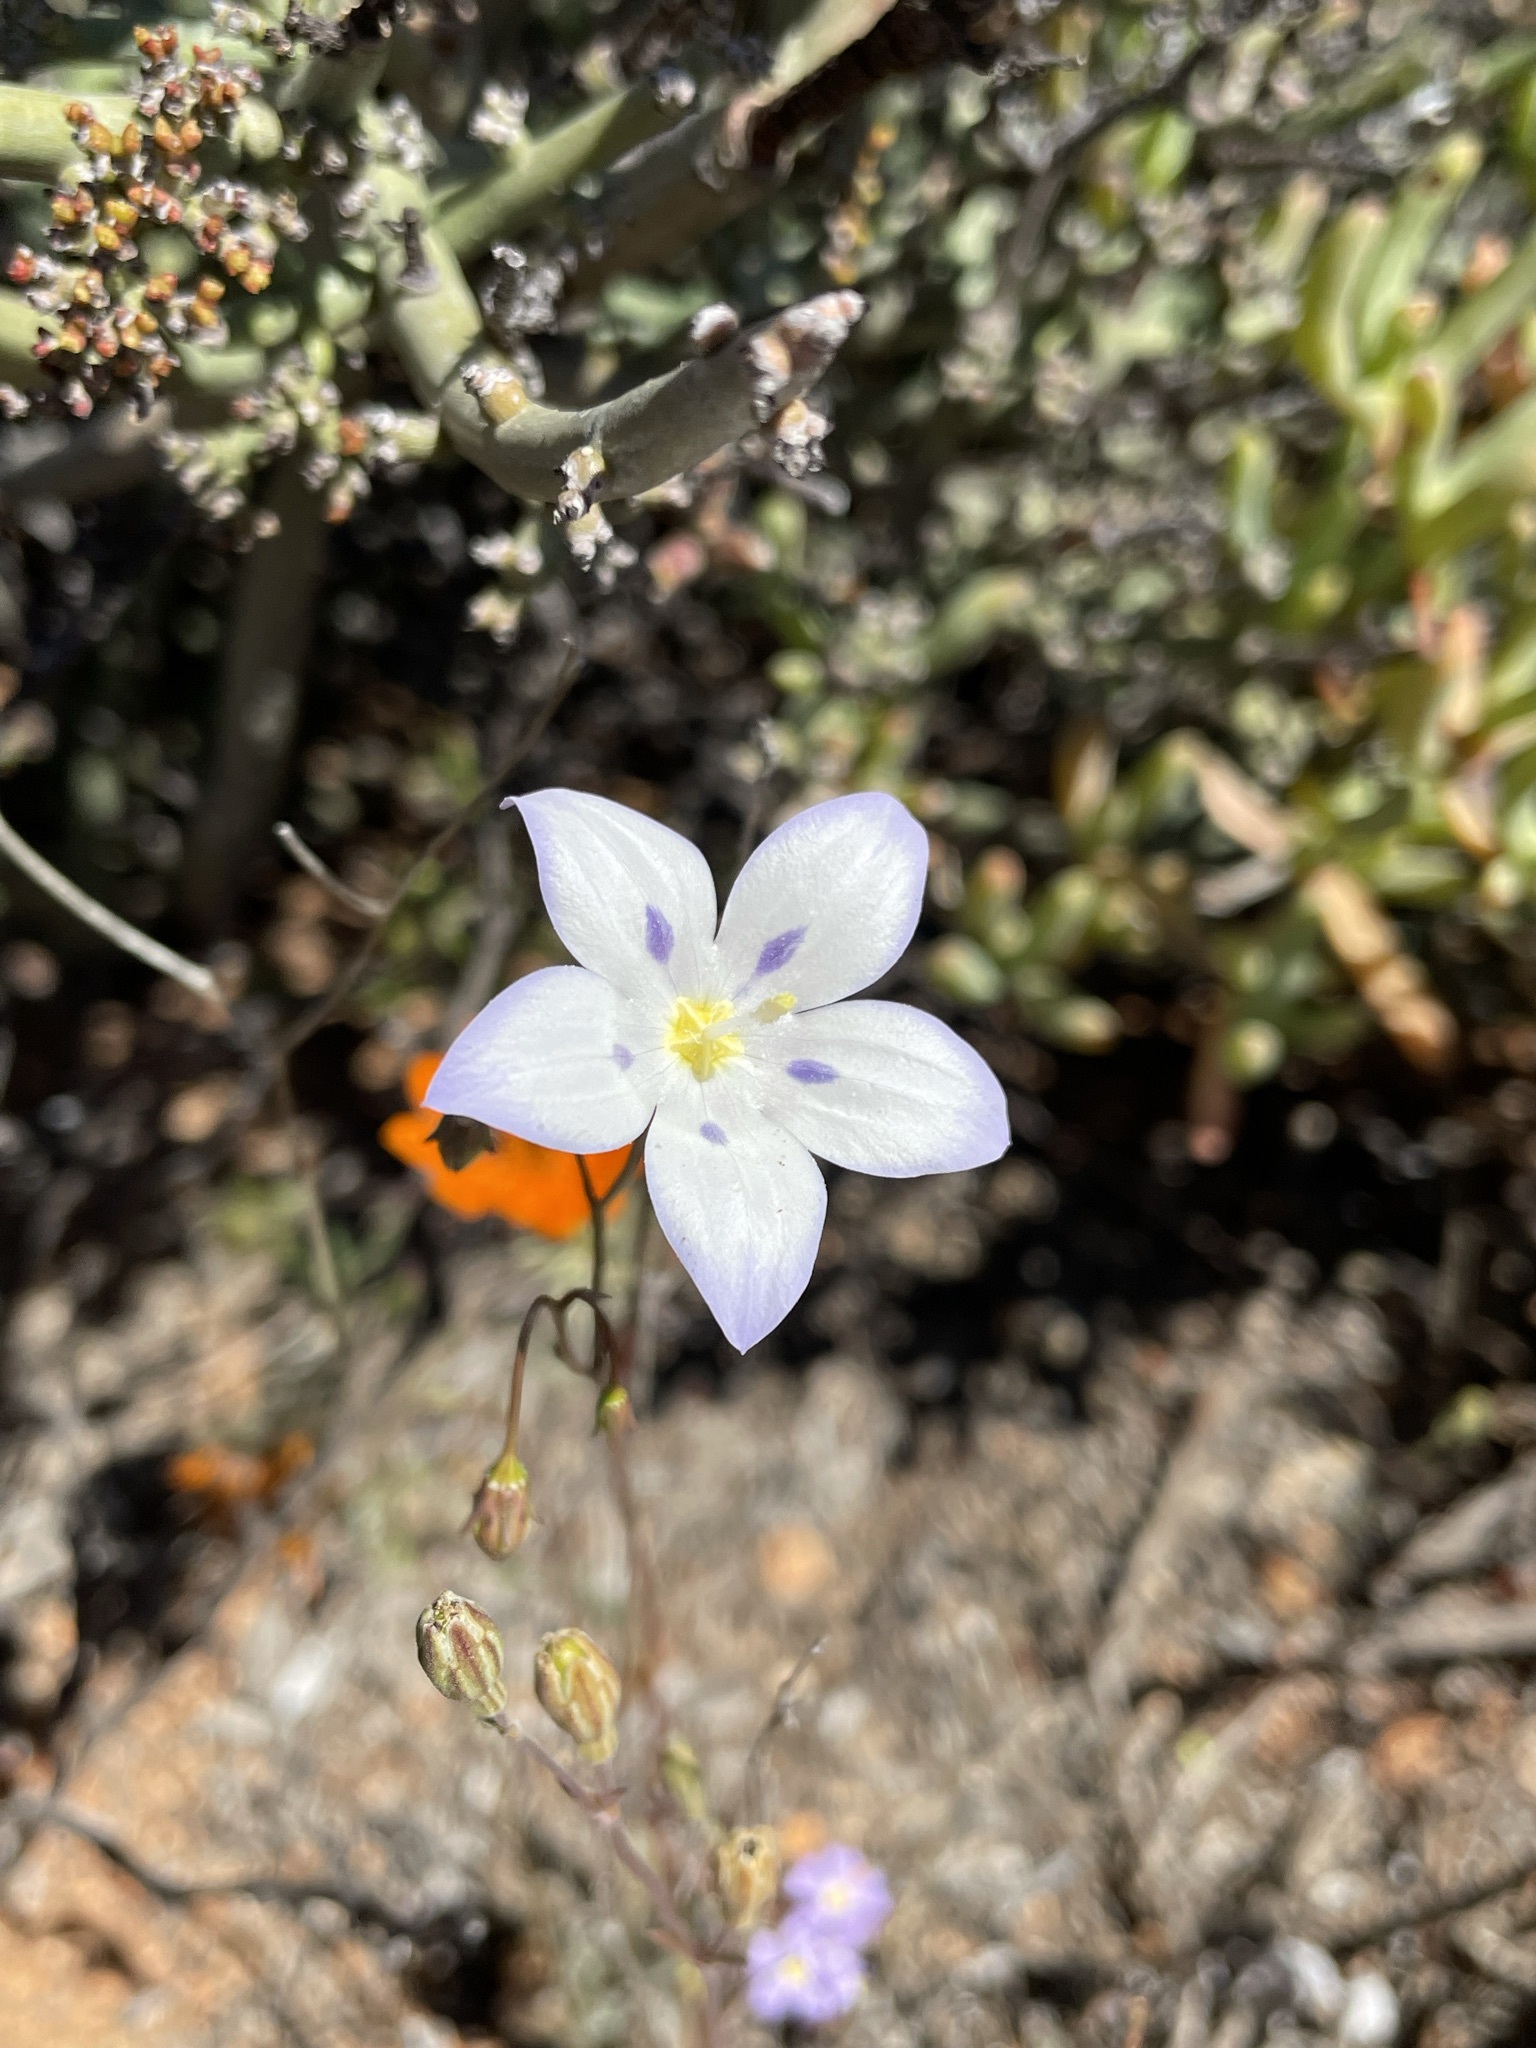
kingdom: Plantae
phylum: Tracheophyta
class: Magnoliopsida
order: Asterales
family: Campanulaceae
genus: Wahlenbergia
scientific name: Wahlenbergia annularis
